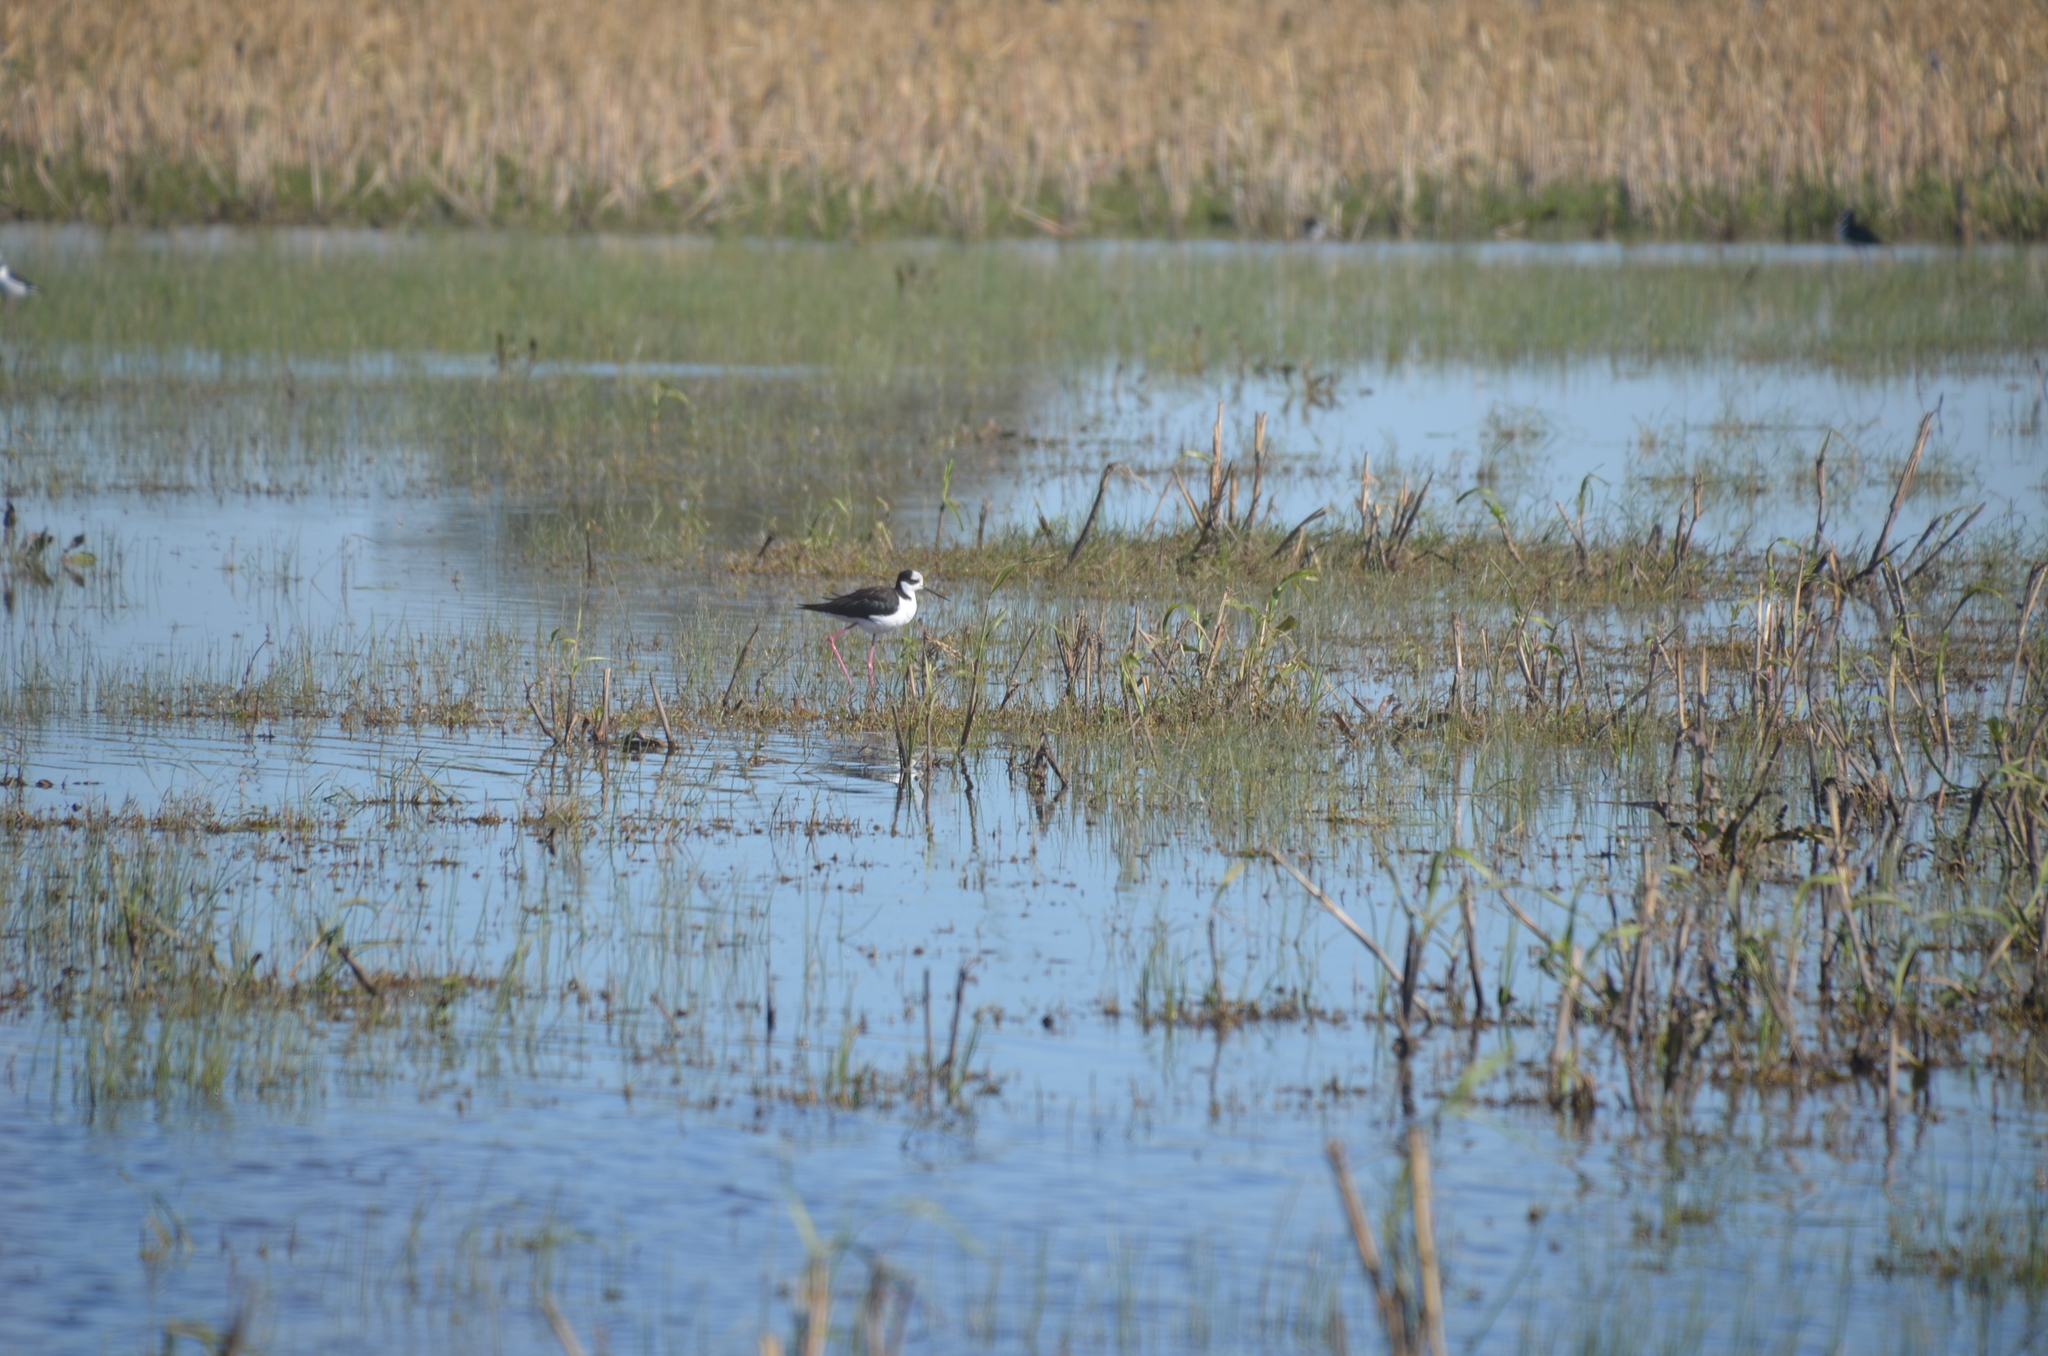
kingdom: Animalia
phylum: Chordata
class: Aves
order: Charadriiformes
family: Recurvirostridae
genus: Himantopus
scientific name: Himantopus mexicanus
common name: Black-necked stilt
